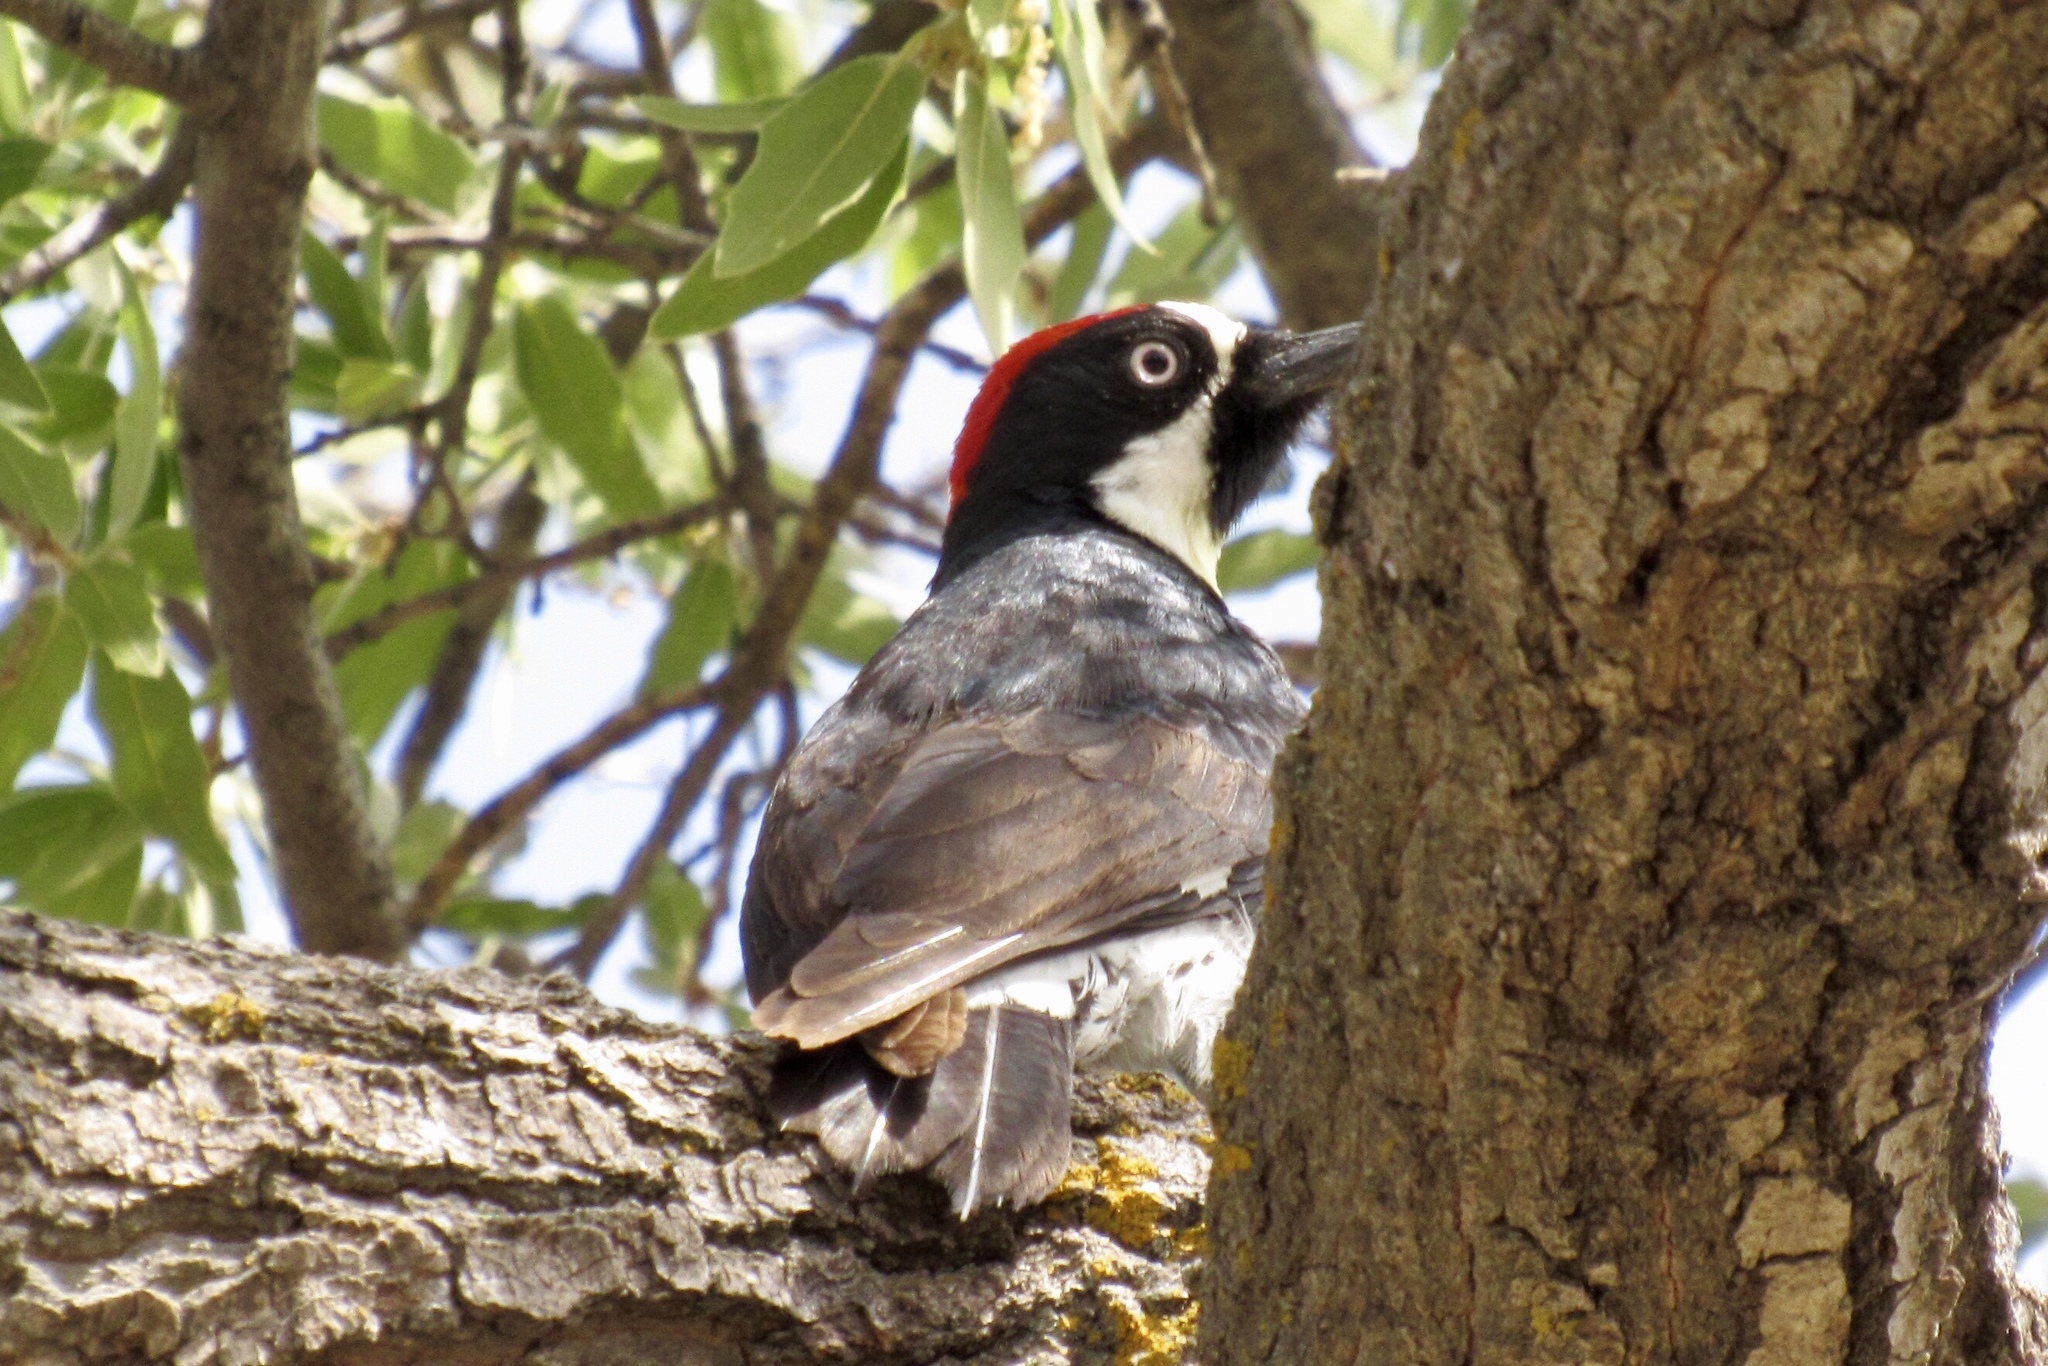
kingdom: Animalia
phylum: Chordata
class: Aves
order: Piciformes
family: Picidae
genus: Melanerpes
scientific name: Melanerpes formicivorus
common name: Acorn woodpecker
